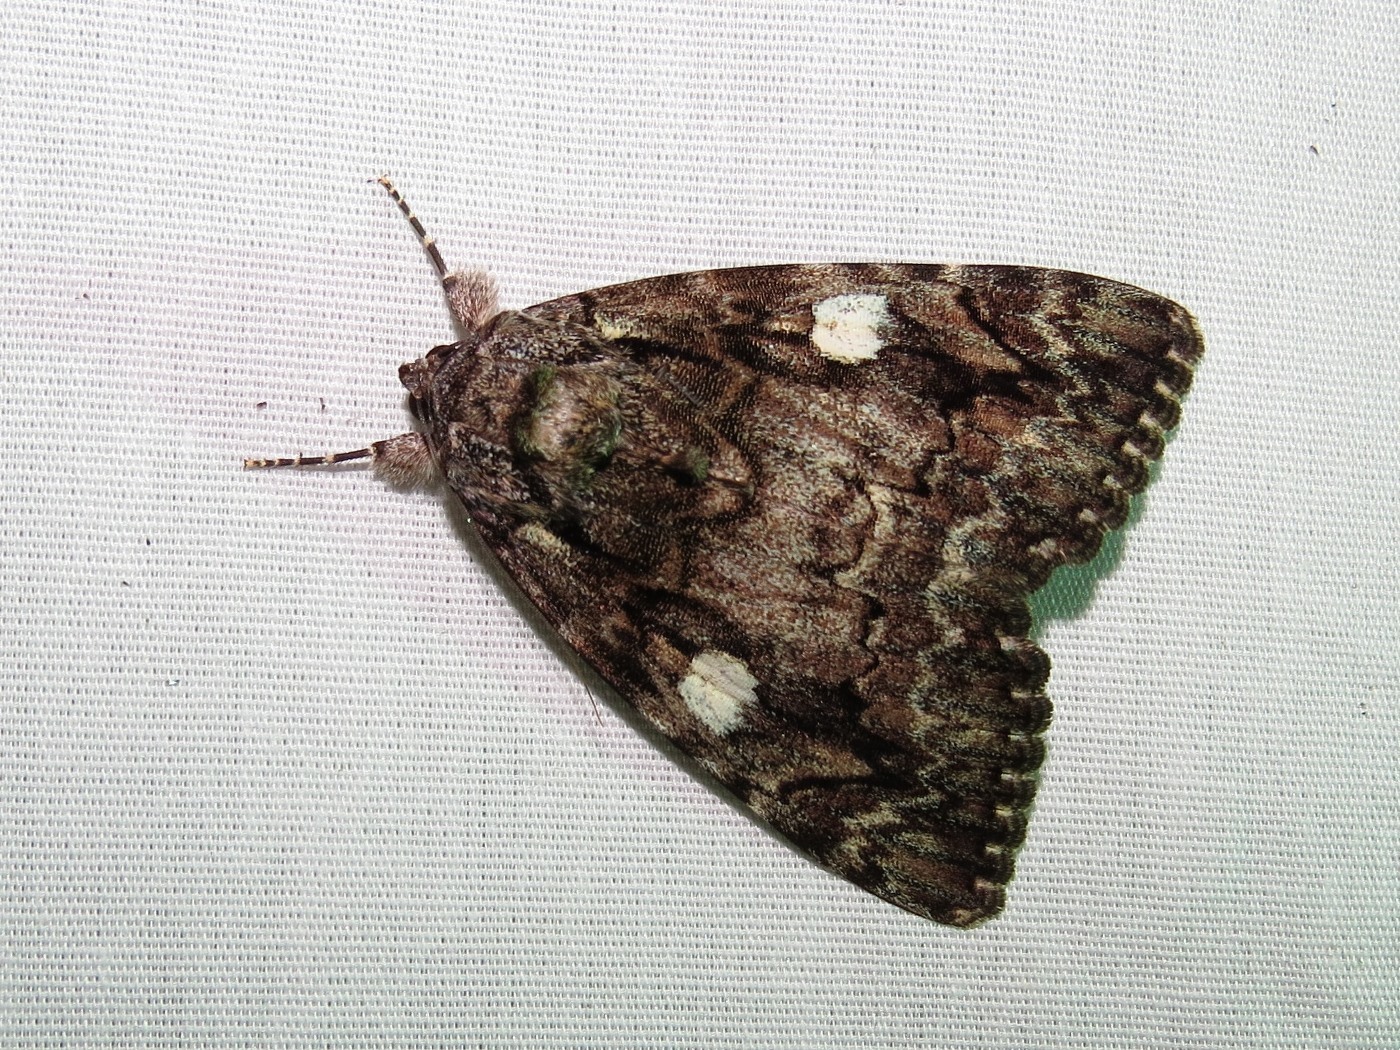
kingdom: Animalia
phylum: Arthropoda
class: Insecta
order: Lepidoptera
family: Erebidae
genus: Catocala
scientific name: Catocala ilia
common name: Ilia underwing
